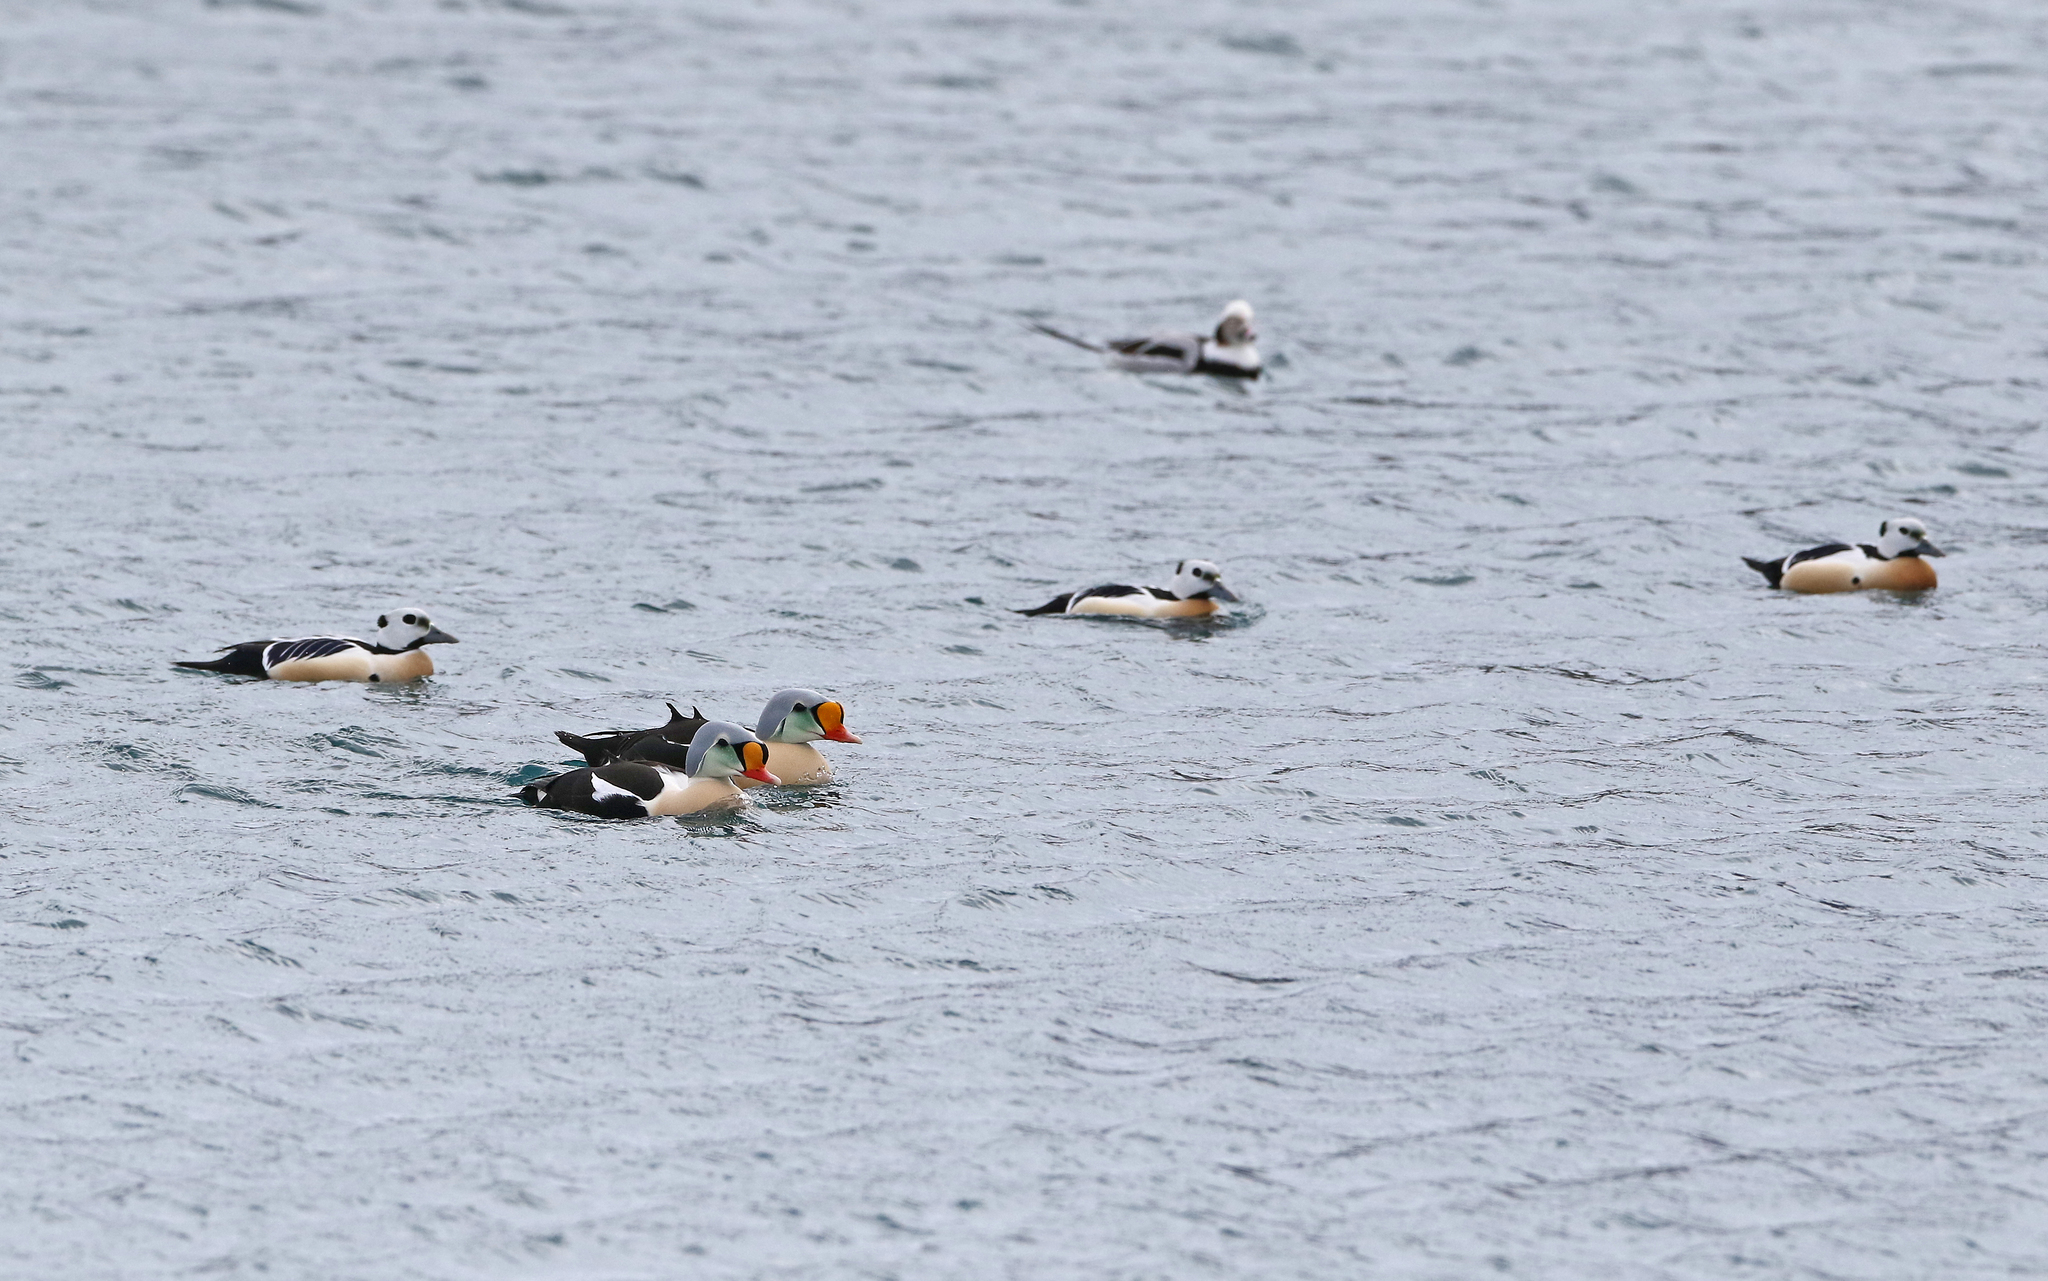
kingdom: Animalia
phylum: Chordata
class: Aves
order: Anseriformes
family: Anatidae
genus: Somateria
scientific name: Somateria spectabilis
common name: King eider
